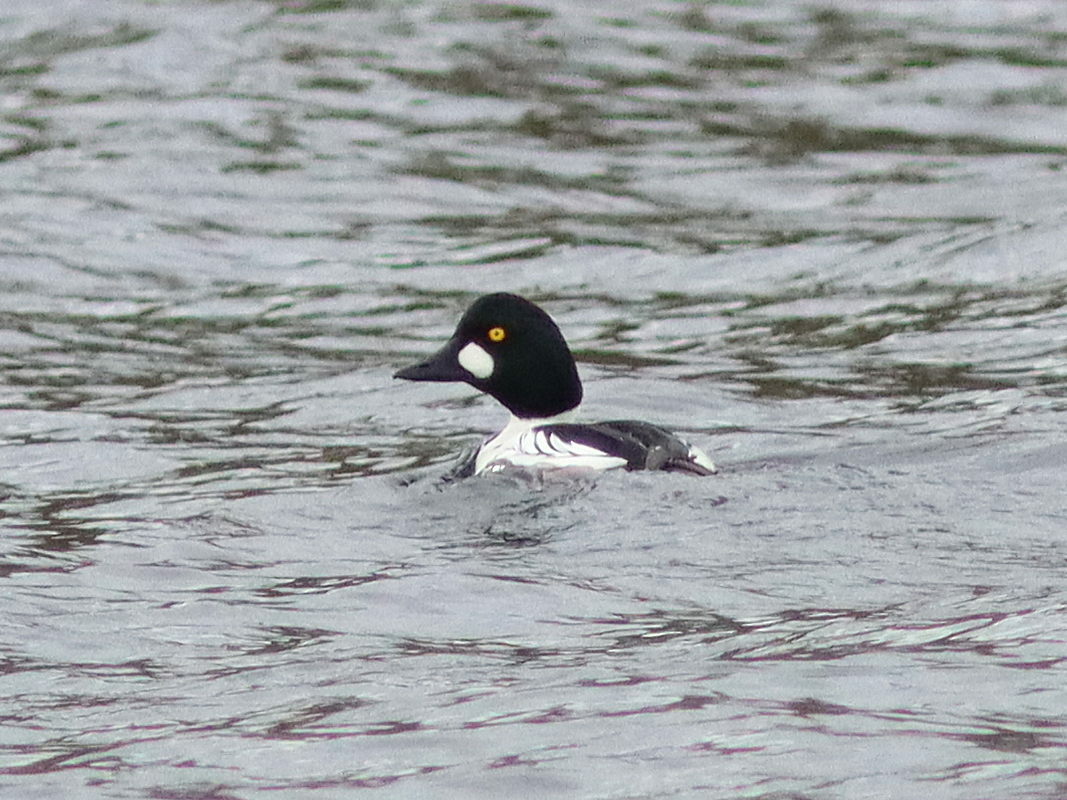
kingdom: Animalia
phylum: Chordata
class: Aves
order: Anseriformes
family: Anatidae
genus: Bucephala
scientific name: Bucephala clangula
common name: Common goldeneye
